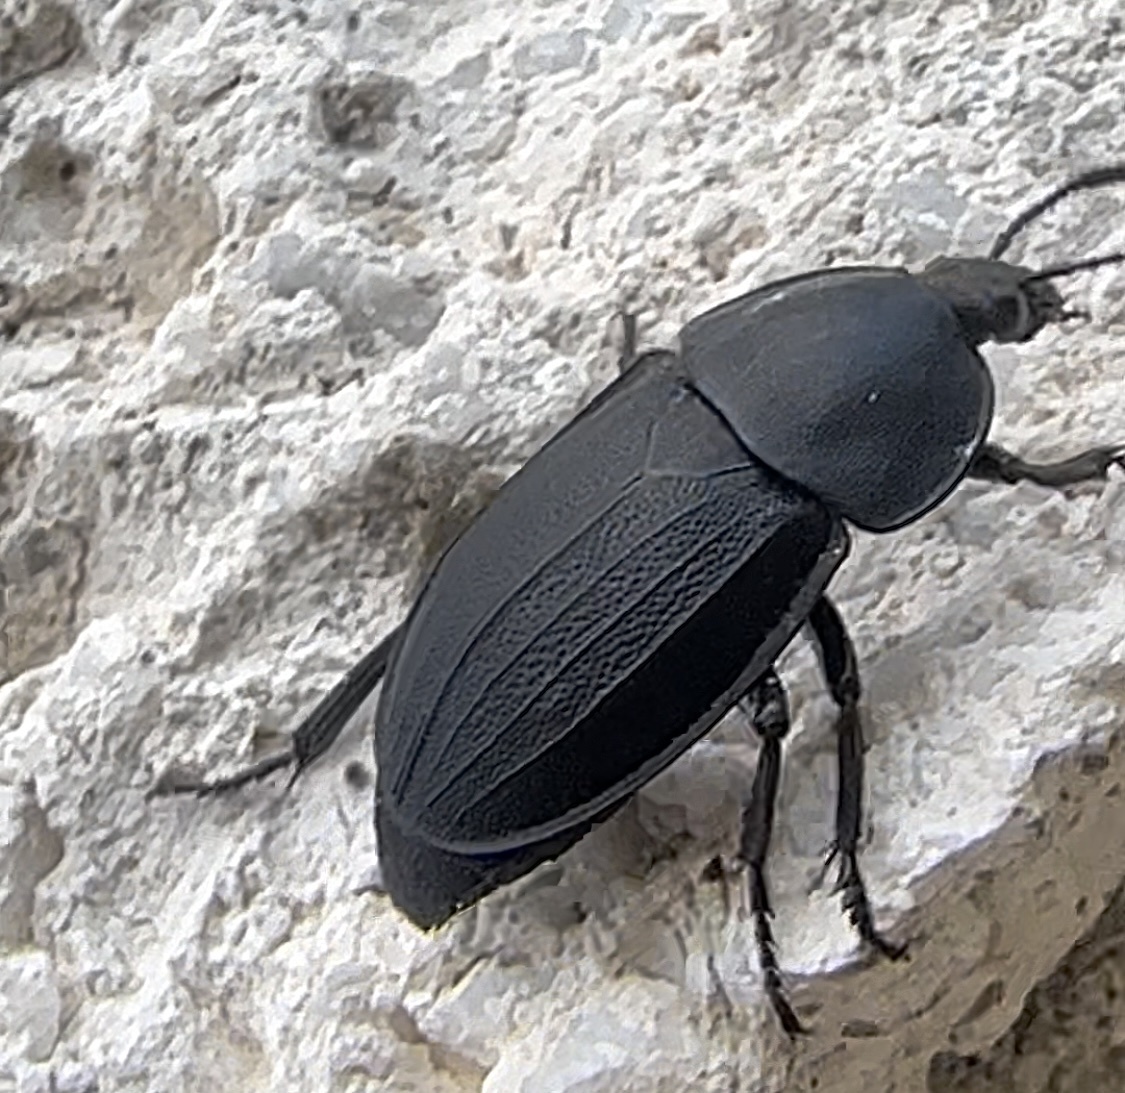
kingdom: Animalia
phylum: Arthropoda
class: Insecta
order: Coleoptera
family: Staphylinidae
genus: Silpha
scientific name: Silpha obscura
